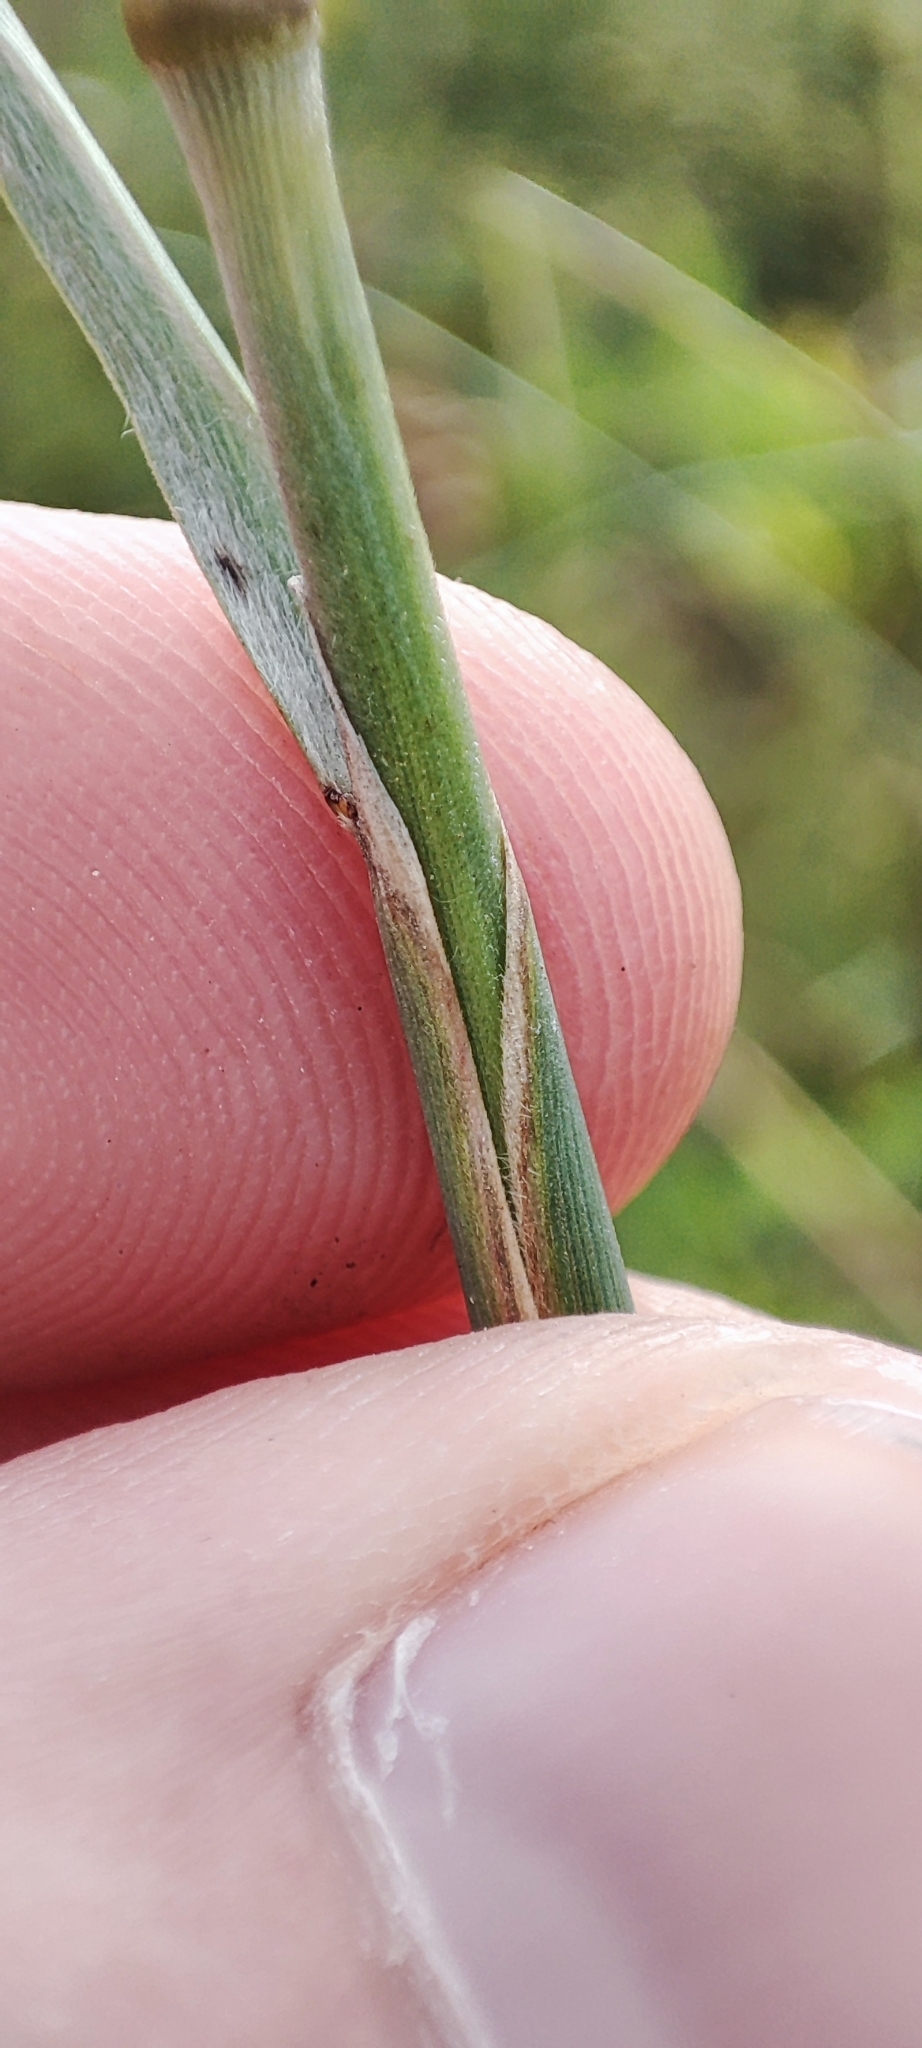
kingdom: Plantae
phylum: Tracheophyta
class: Liliopsida
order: Poales
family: Poaceae
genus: Stipa
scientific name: Stipa capillata
